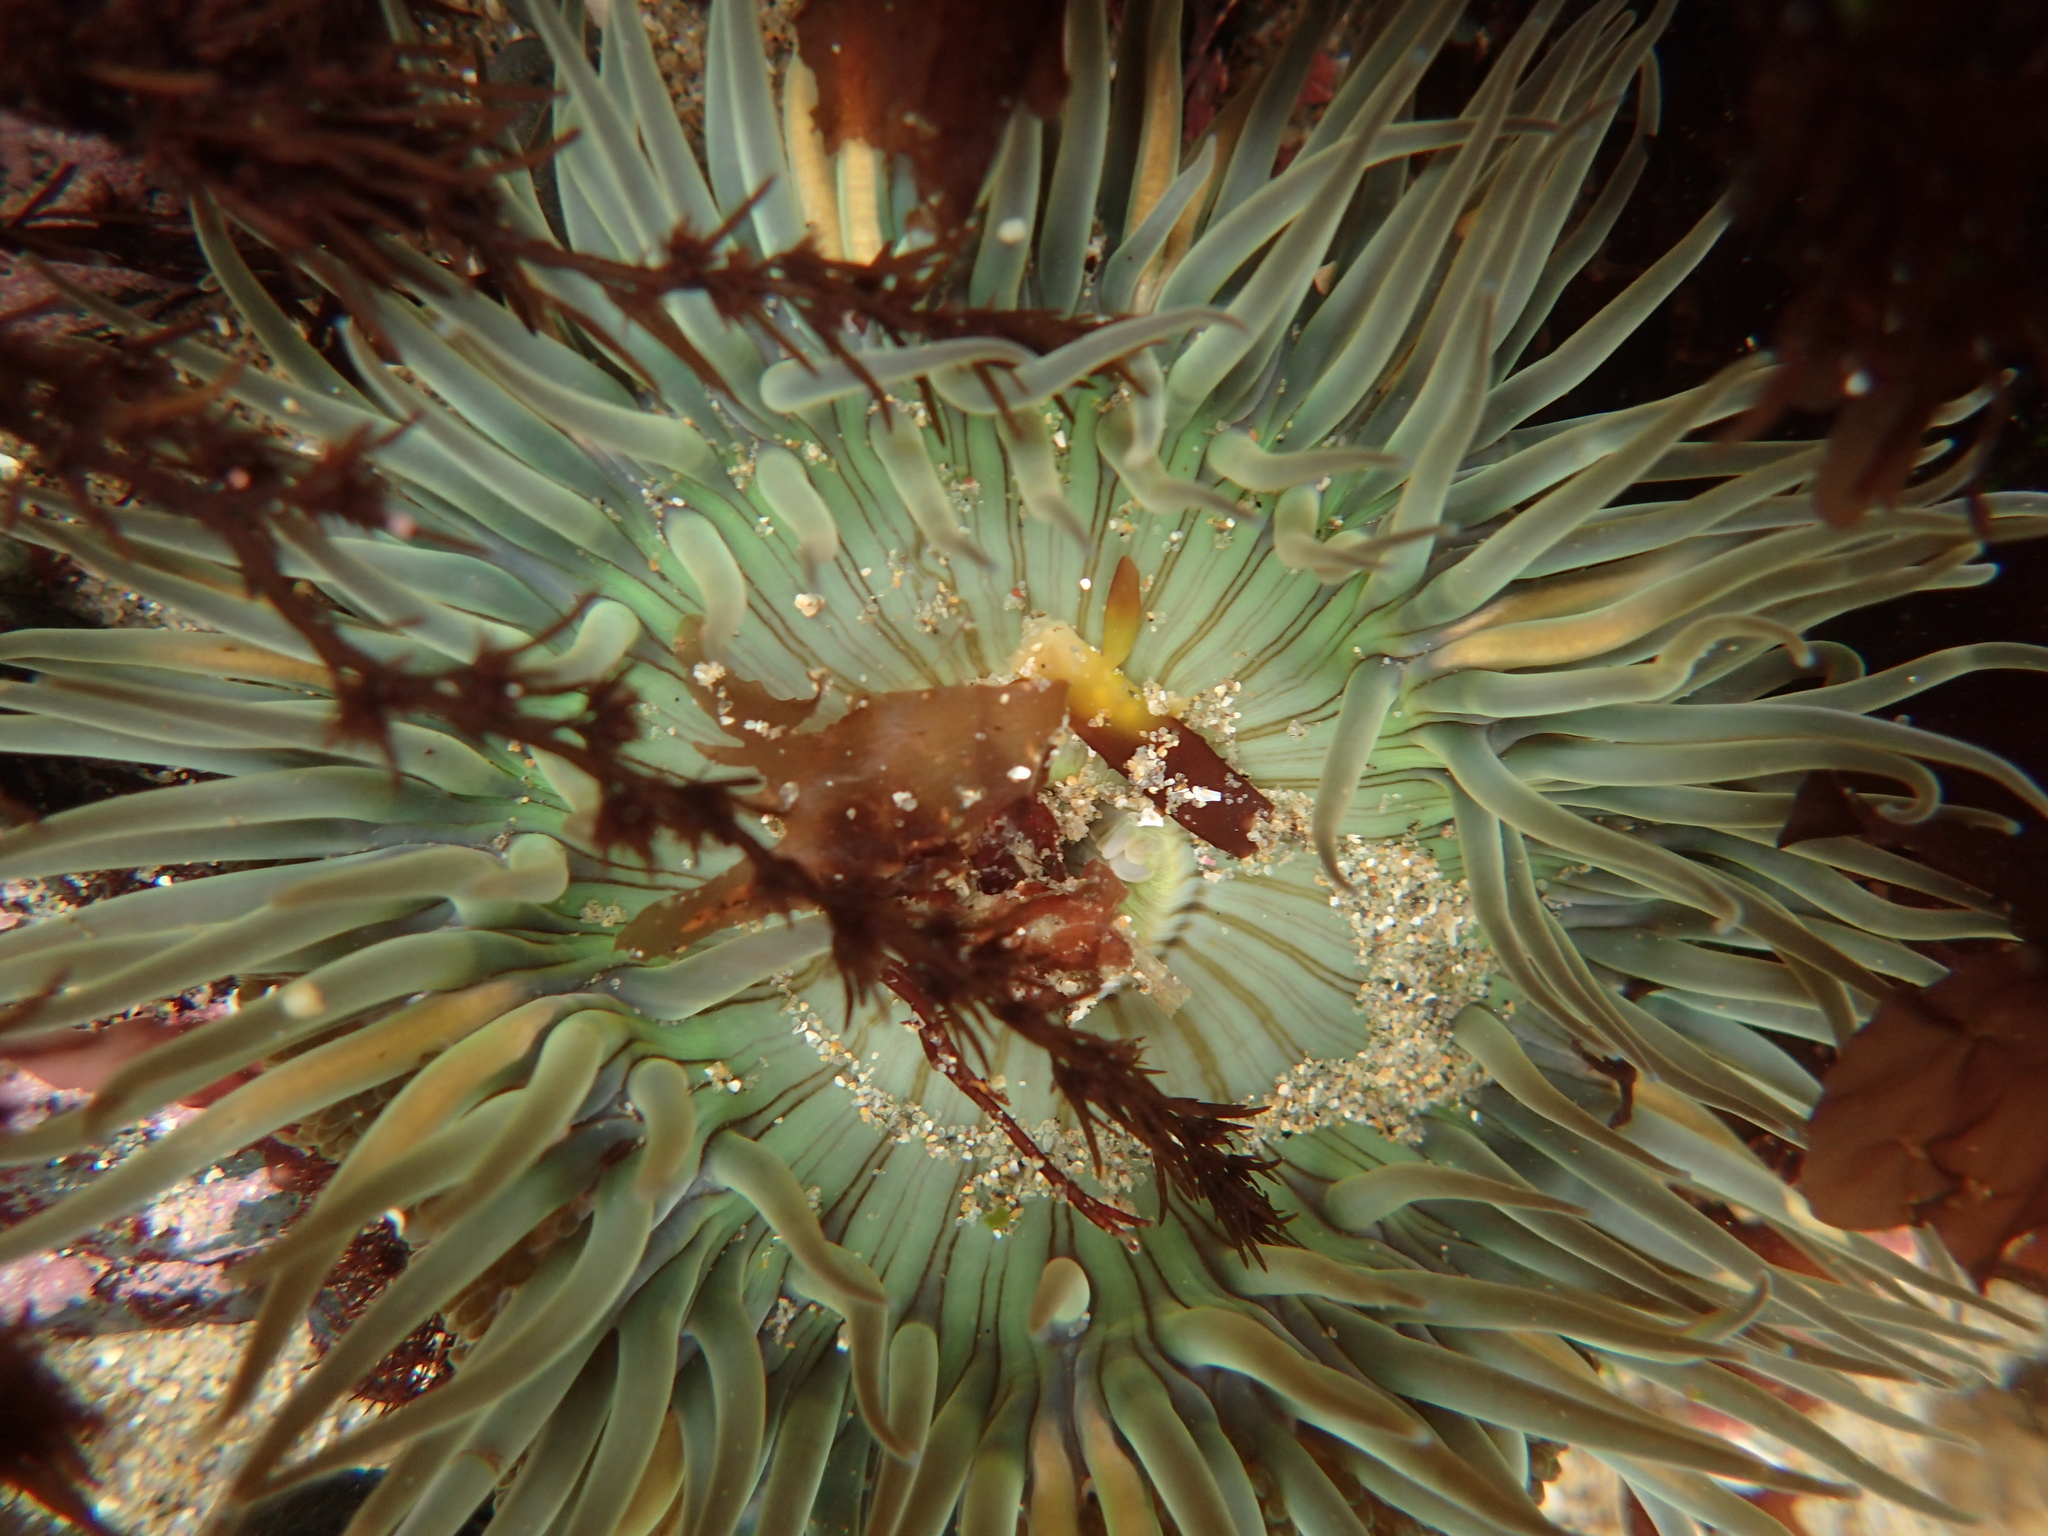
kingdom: Animalia
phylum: Cnidaria
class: Anthozoa
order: Actiniaria
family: Actiniidae
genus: Anthopleura
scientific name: Anthopleura sola
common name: Sun anemone
